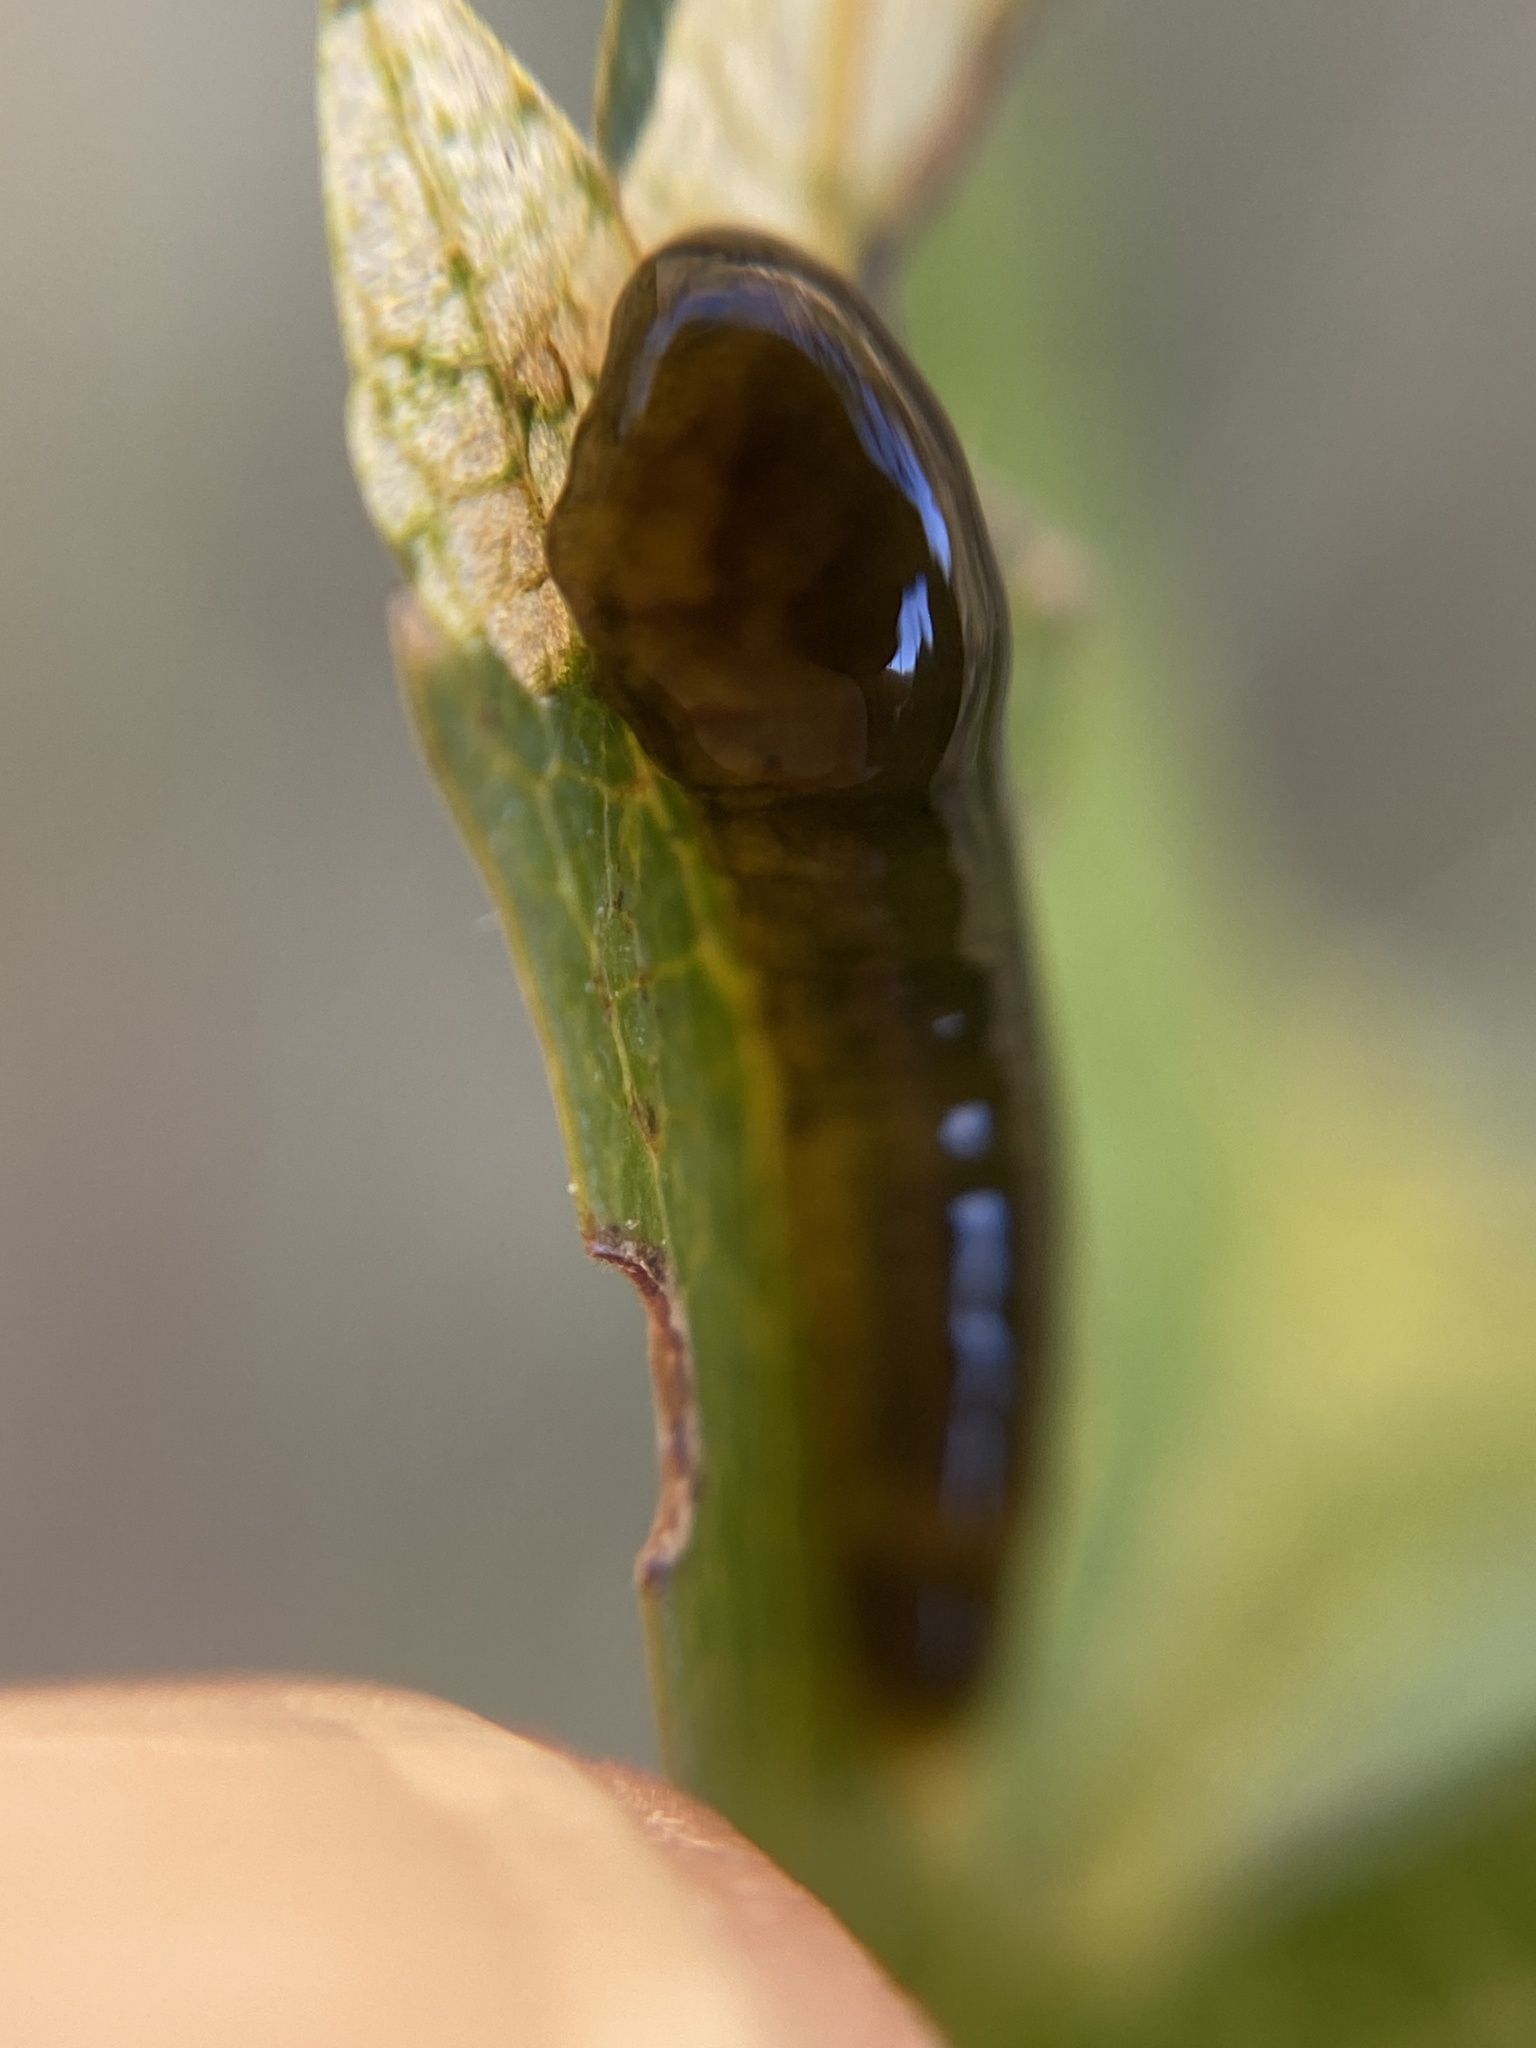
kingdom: Animalia
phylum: Arthropoda
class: Insecta
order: Hymenoptera
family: Tenthredinidae
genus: Caliroa
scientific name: Caliroa cerasi
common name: Pear sawfly
